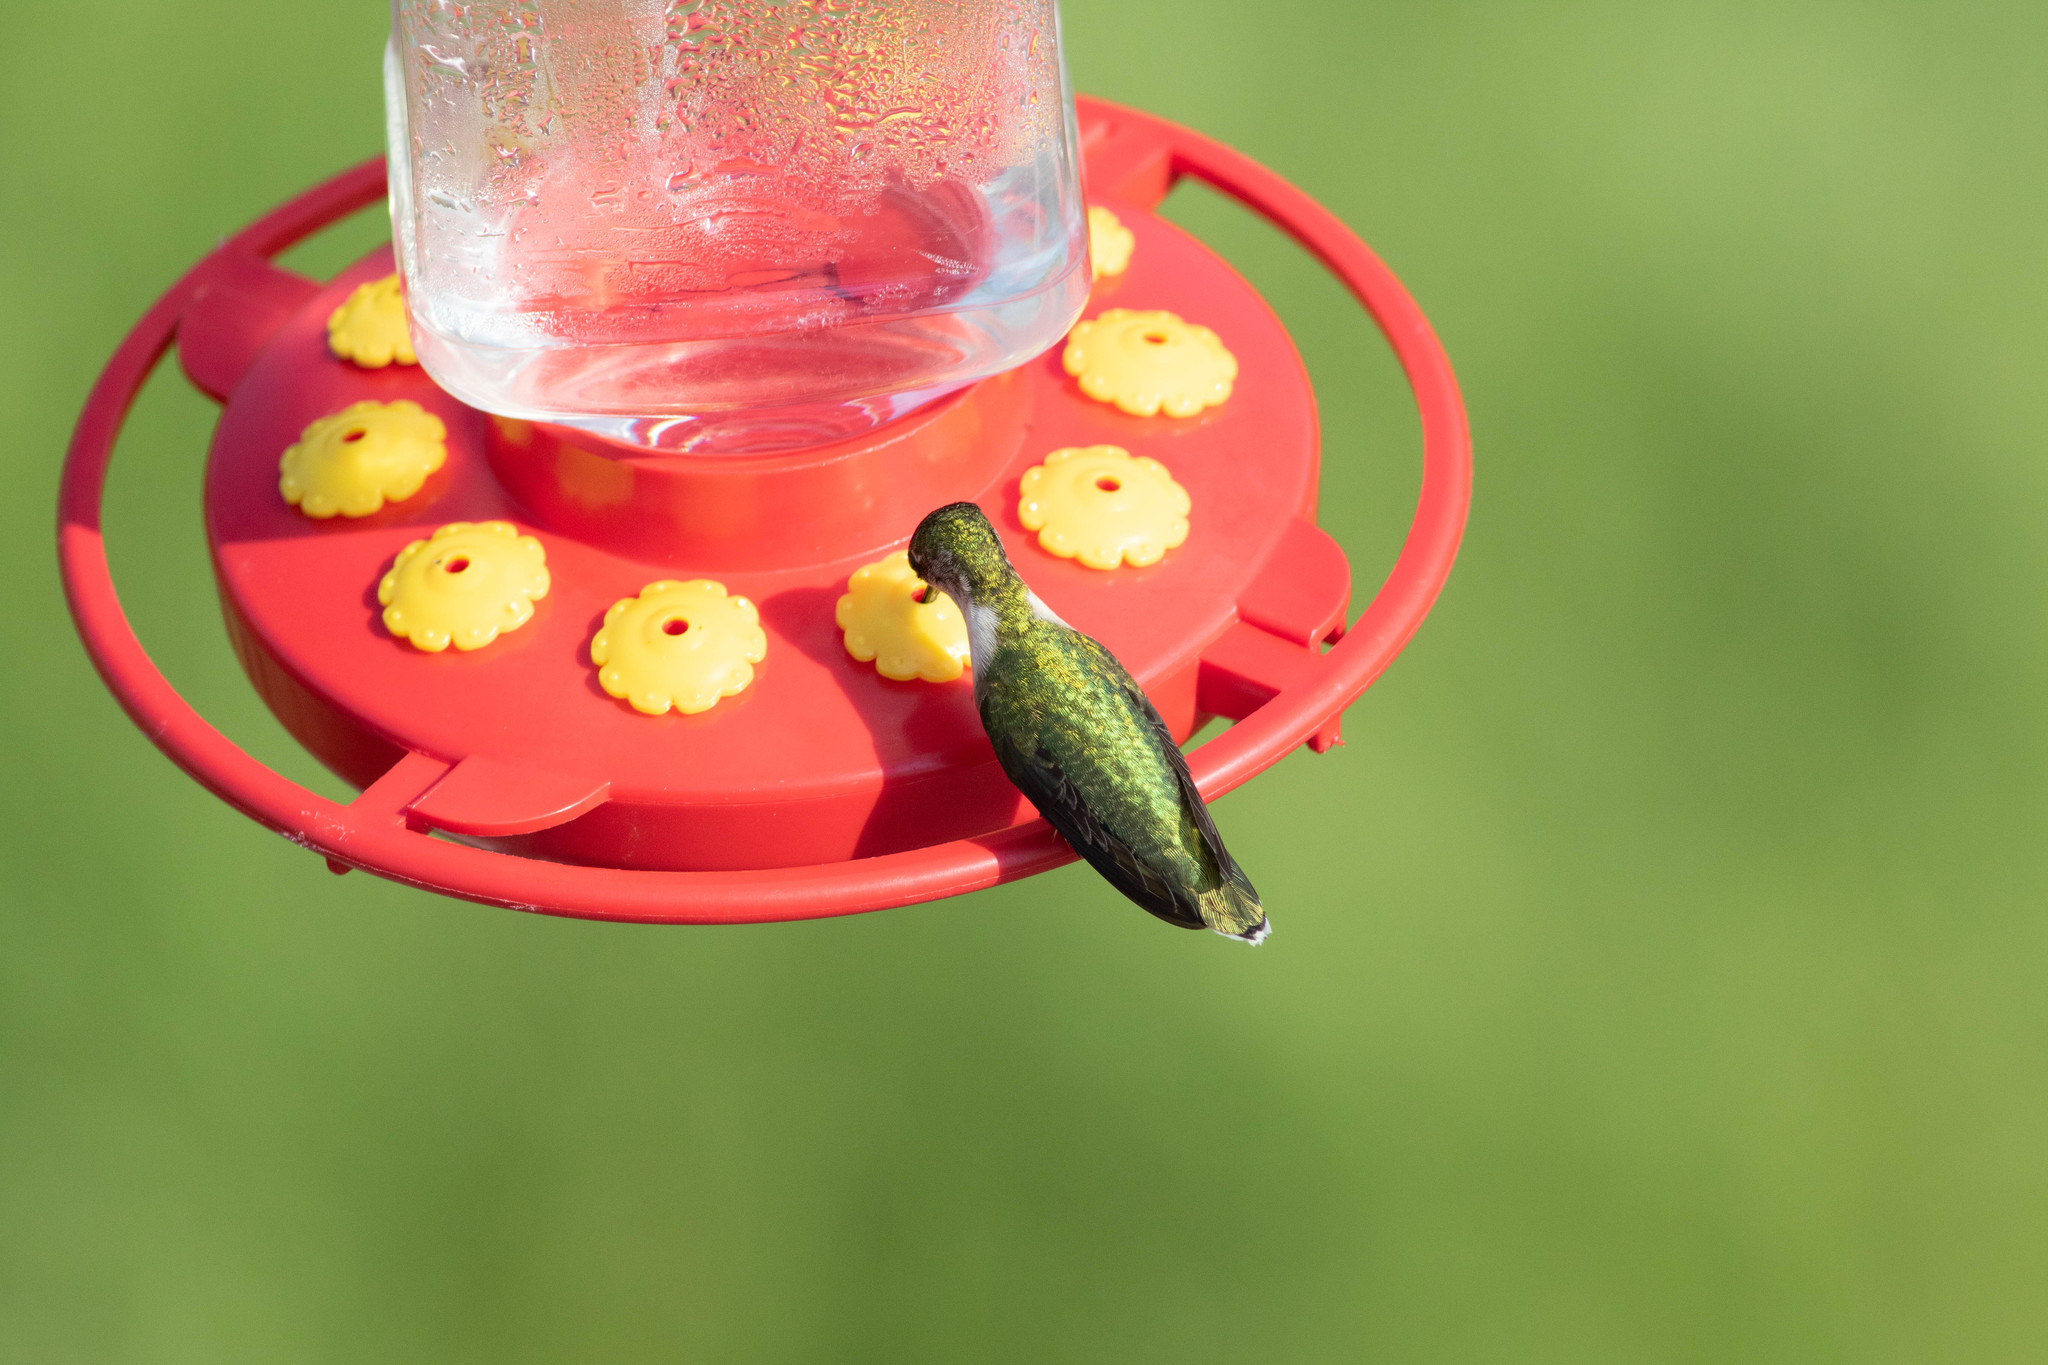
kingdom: Animalia
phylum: Chordata
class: Aves
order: Apodiformes
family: Trochilidae
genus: Archilochus
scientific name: Archilochus colubris
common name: Ruby-throated hummingbird
